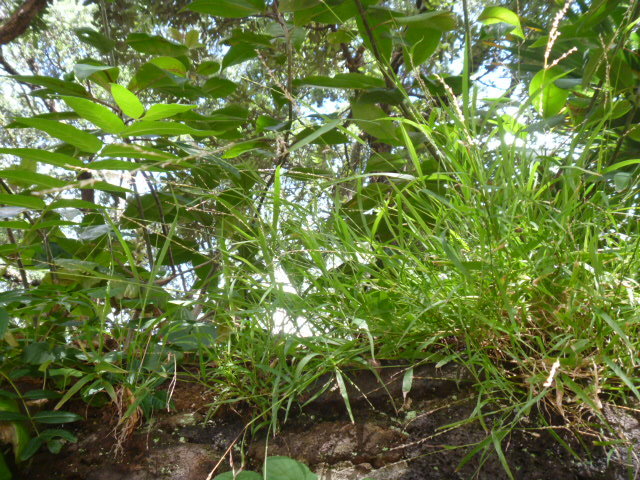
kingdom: Plantae
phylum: Tracheophyta
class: Liliopsida
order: Poales
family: Poaceae
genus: Ehrharta
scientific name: Ehrharta erecta
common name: Panic veldtgrass
